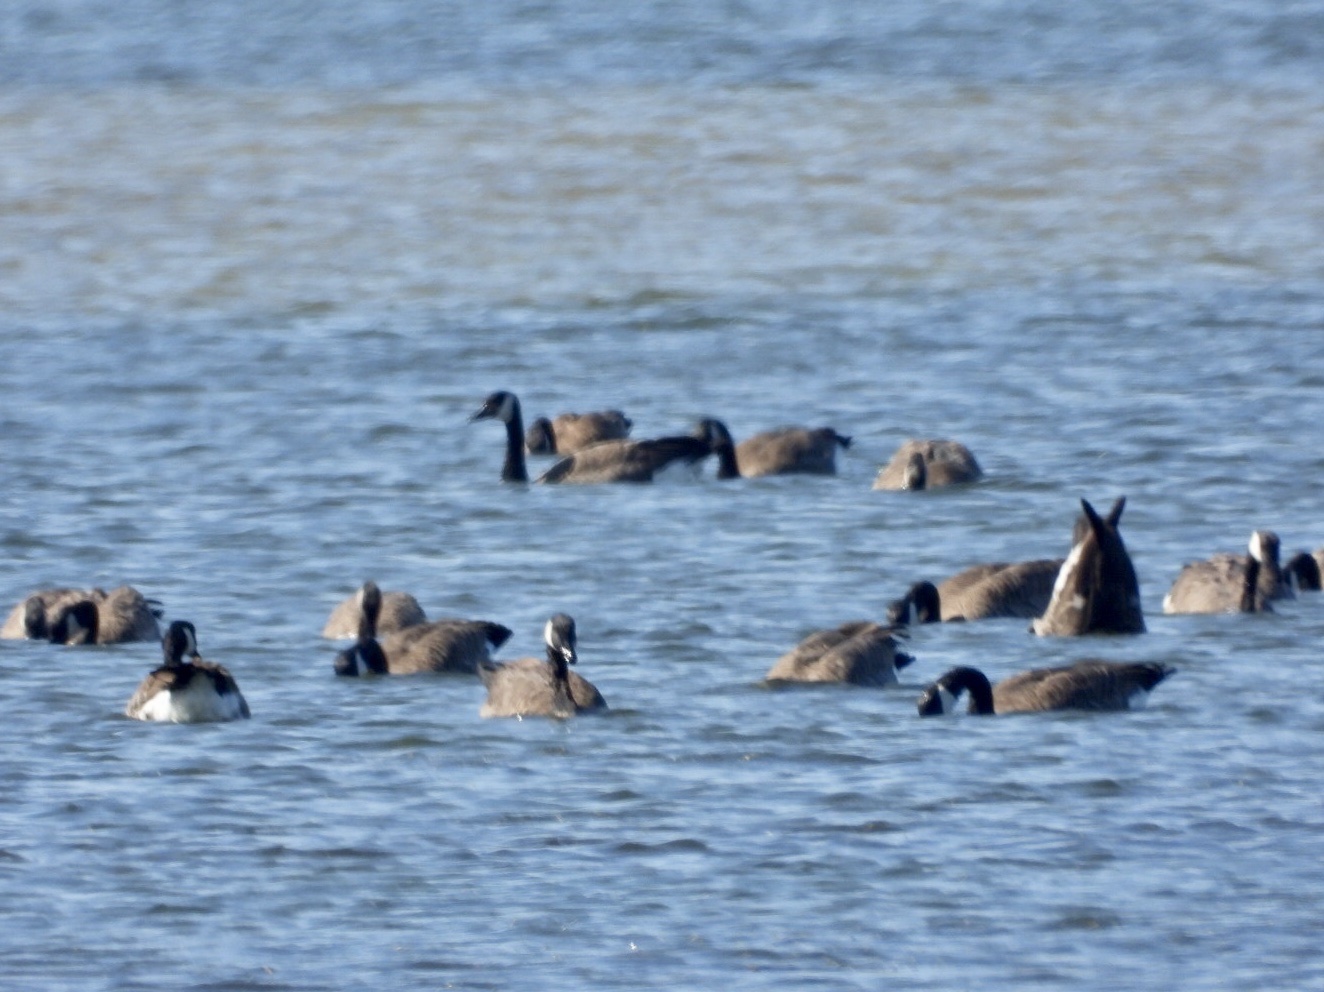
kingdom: Animalia
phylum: Chordata
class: Aves
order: Anseriformes
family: Anatidae
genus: Branta
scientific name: Branta canadensis
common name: Canada goose
